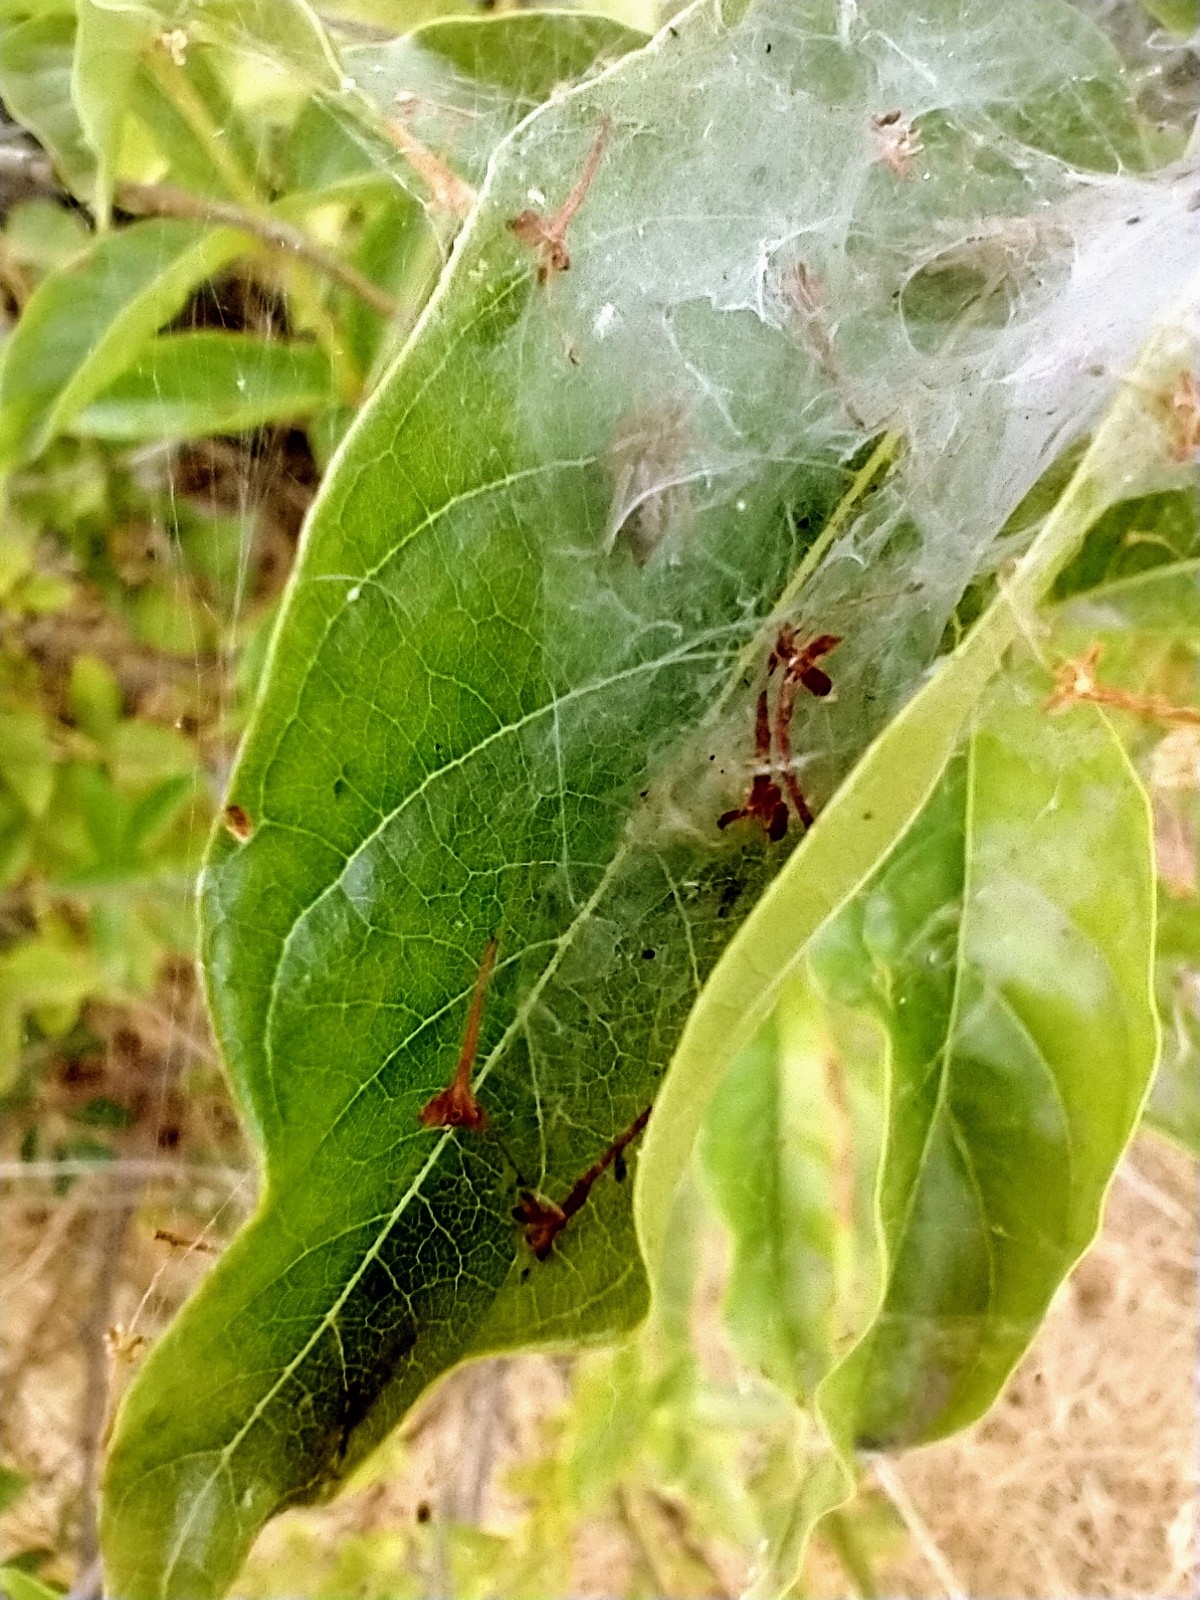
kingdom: Animalia
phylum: Arthropoda
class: Arachnida
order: Araneae
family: Agelenidae
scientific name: Agelenidae
